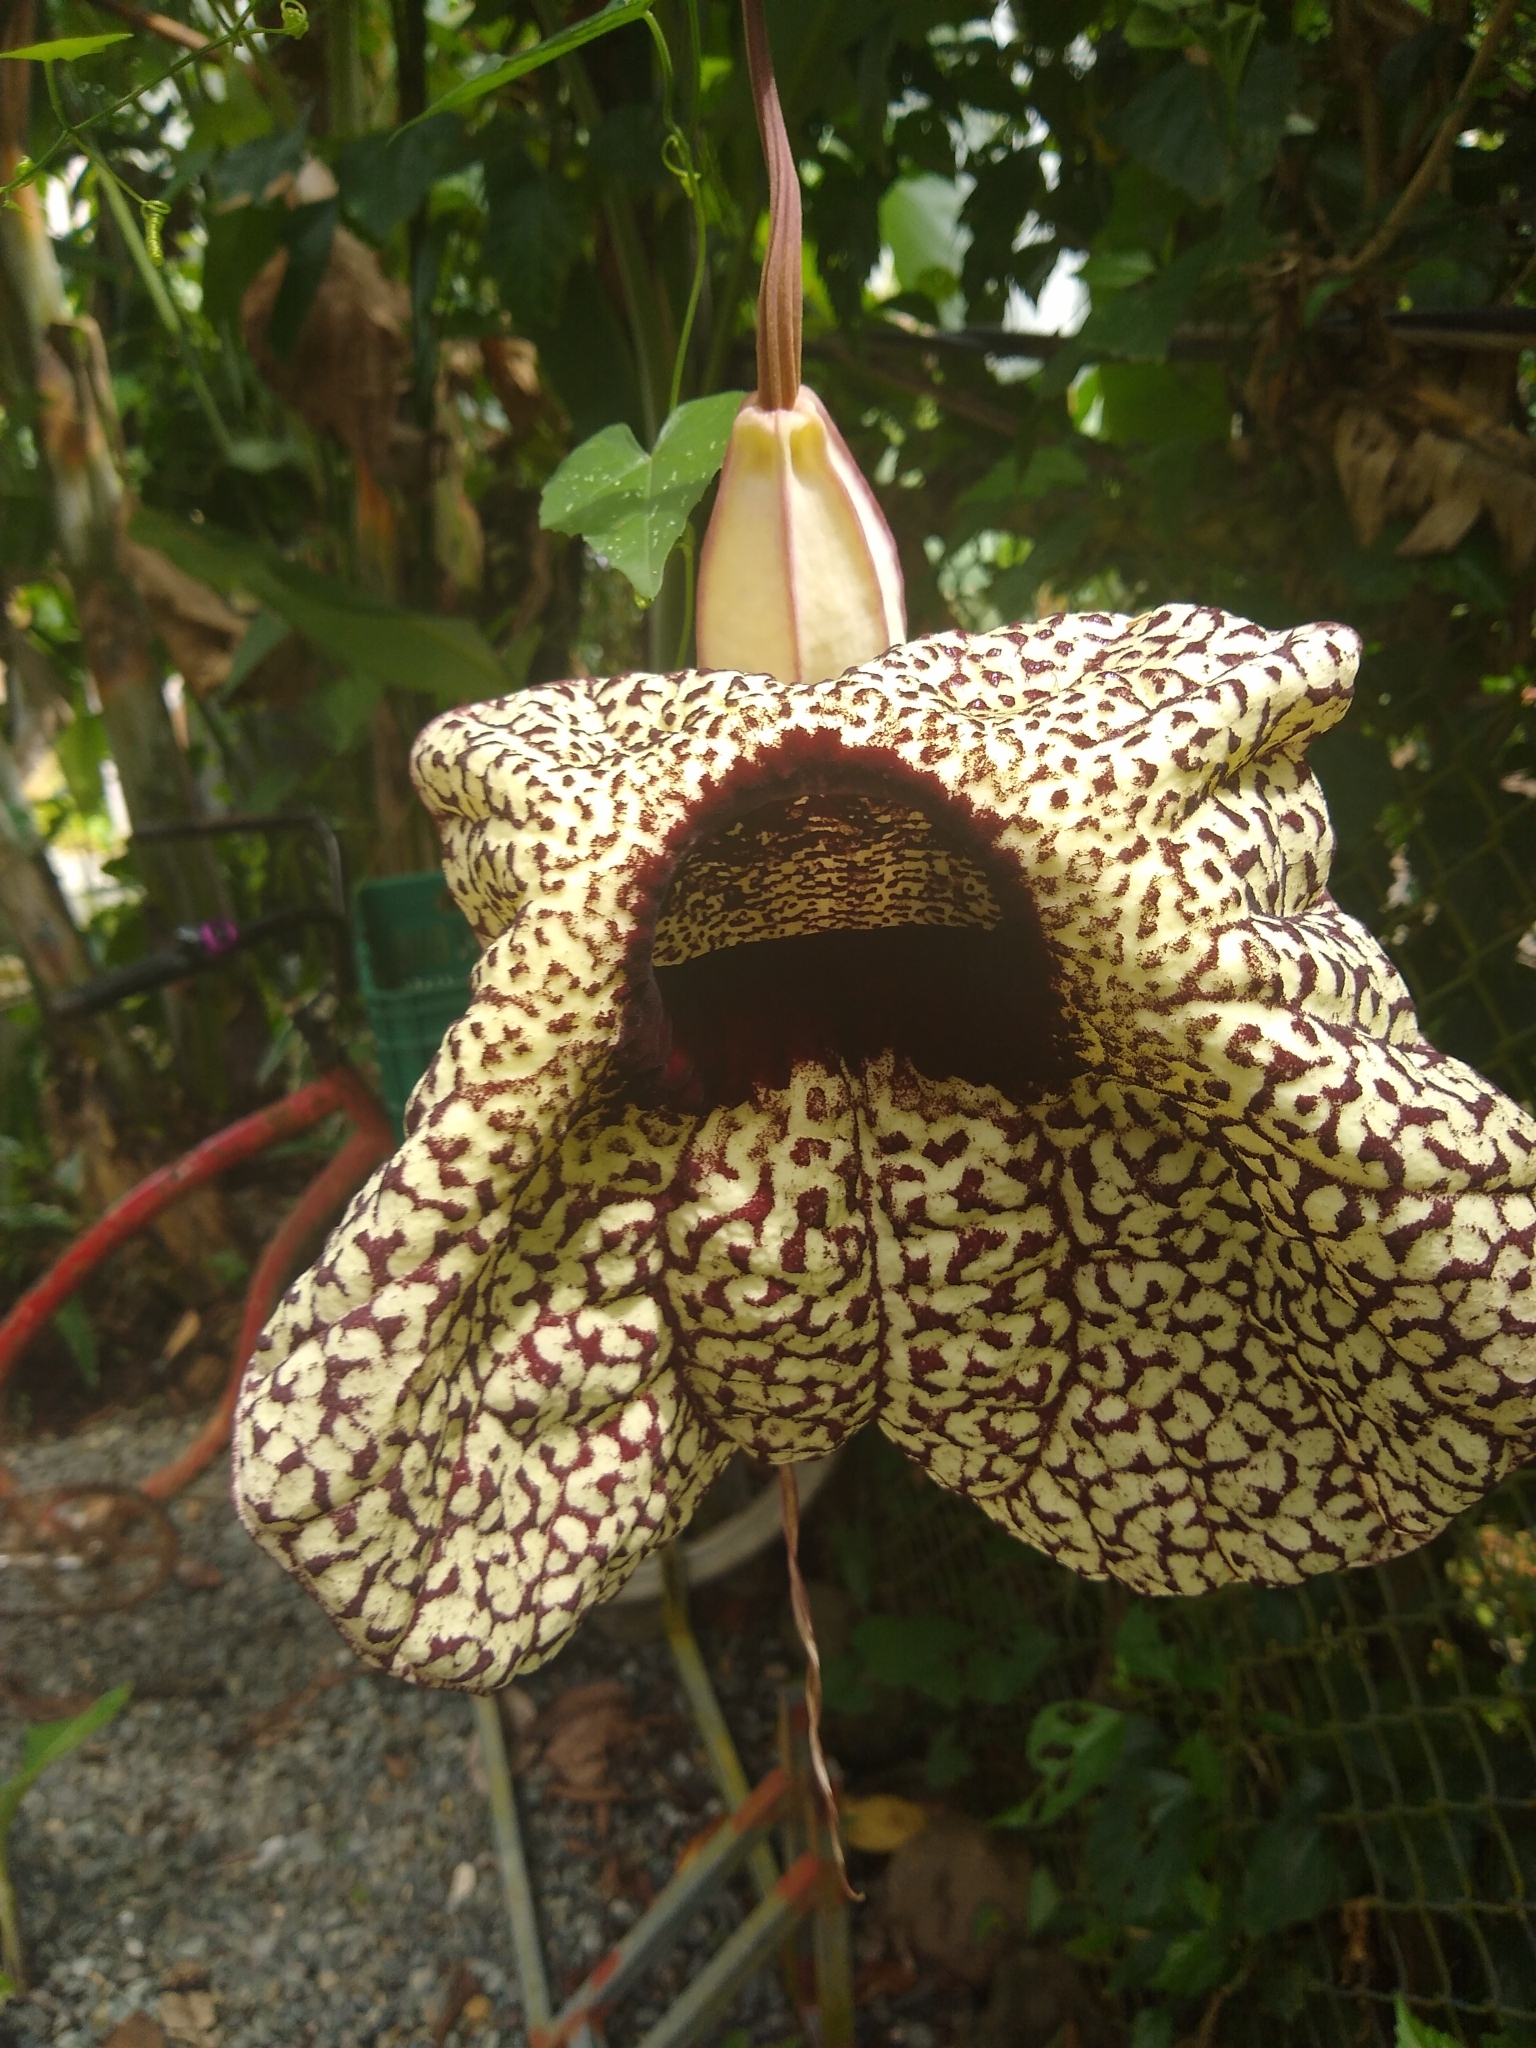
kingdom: Plantae
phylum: Tracheophyta
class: Magnoliopsida
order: Piperales
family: Aristolochiaceae
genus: Aristolochia
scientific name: Aristolochia grandiflora
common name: Pelicanflower
